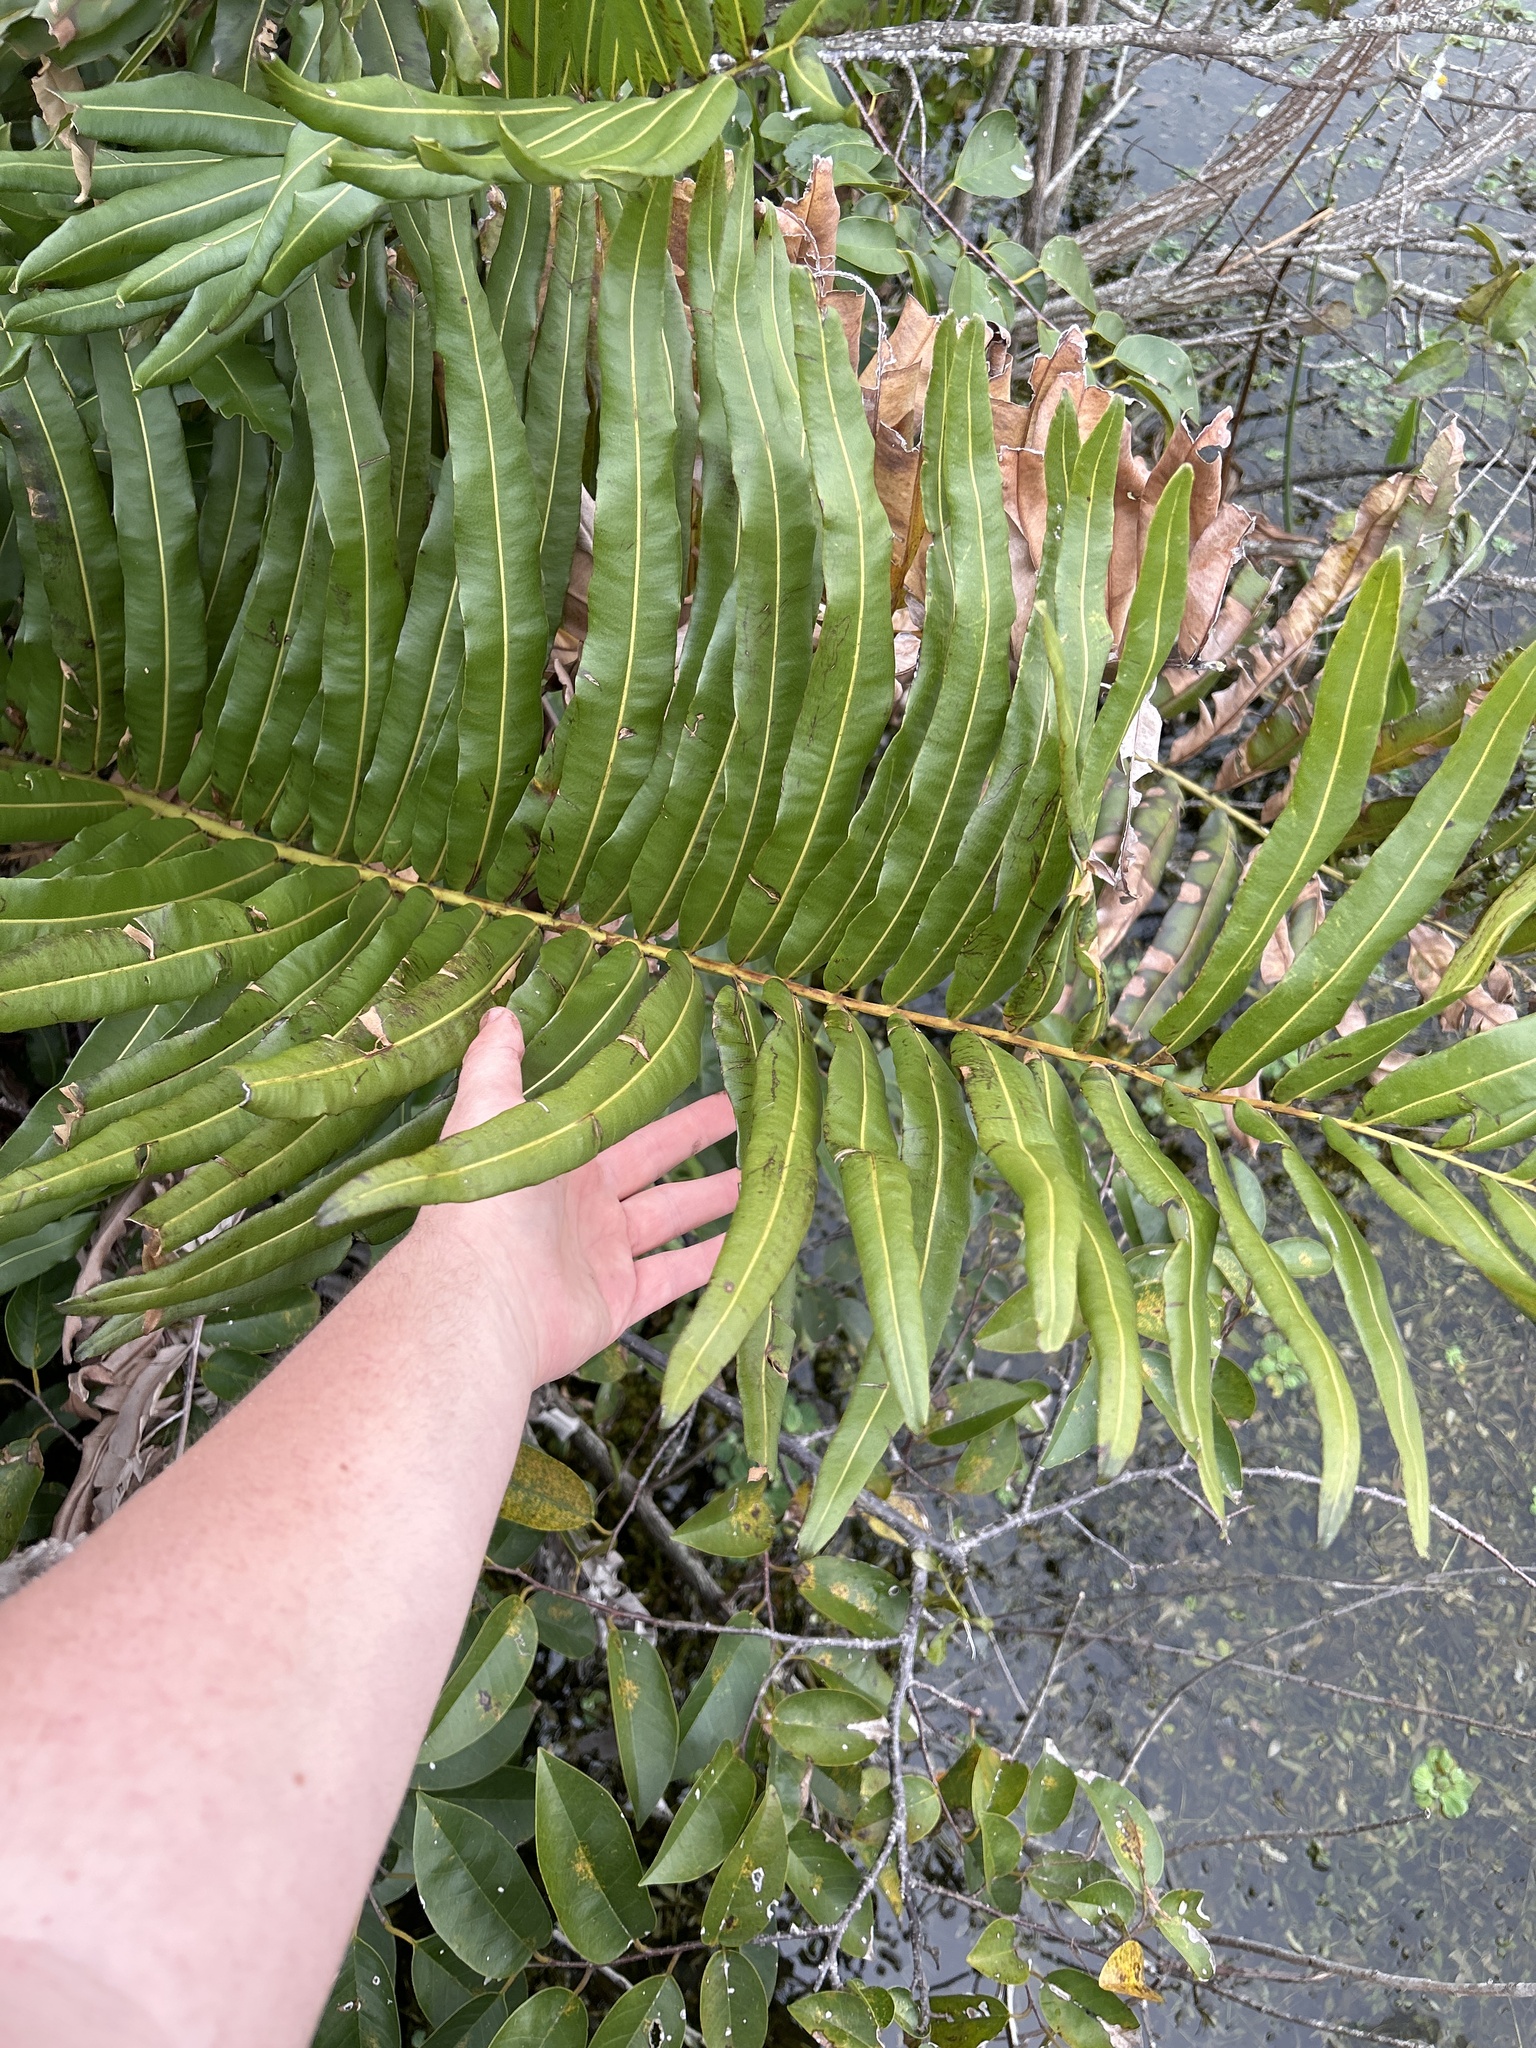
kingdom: Plantae
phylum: Tracheophyta
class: Polypodiopsida
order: Polypodiales
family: Pteridaceae
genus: Acrostichum
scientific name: Acrostichum danaeifolium
